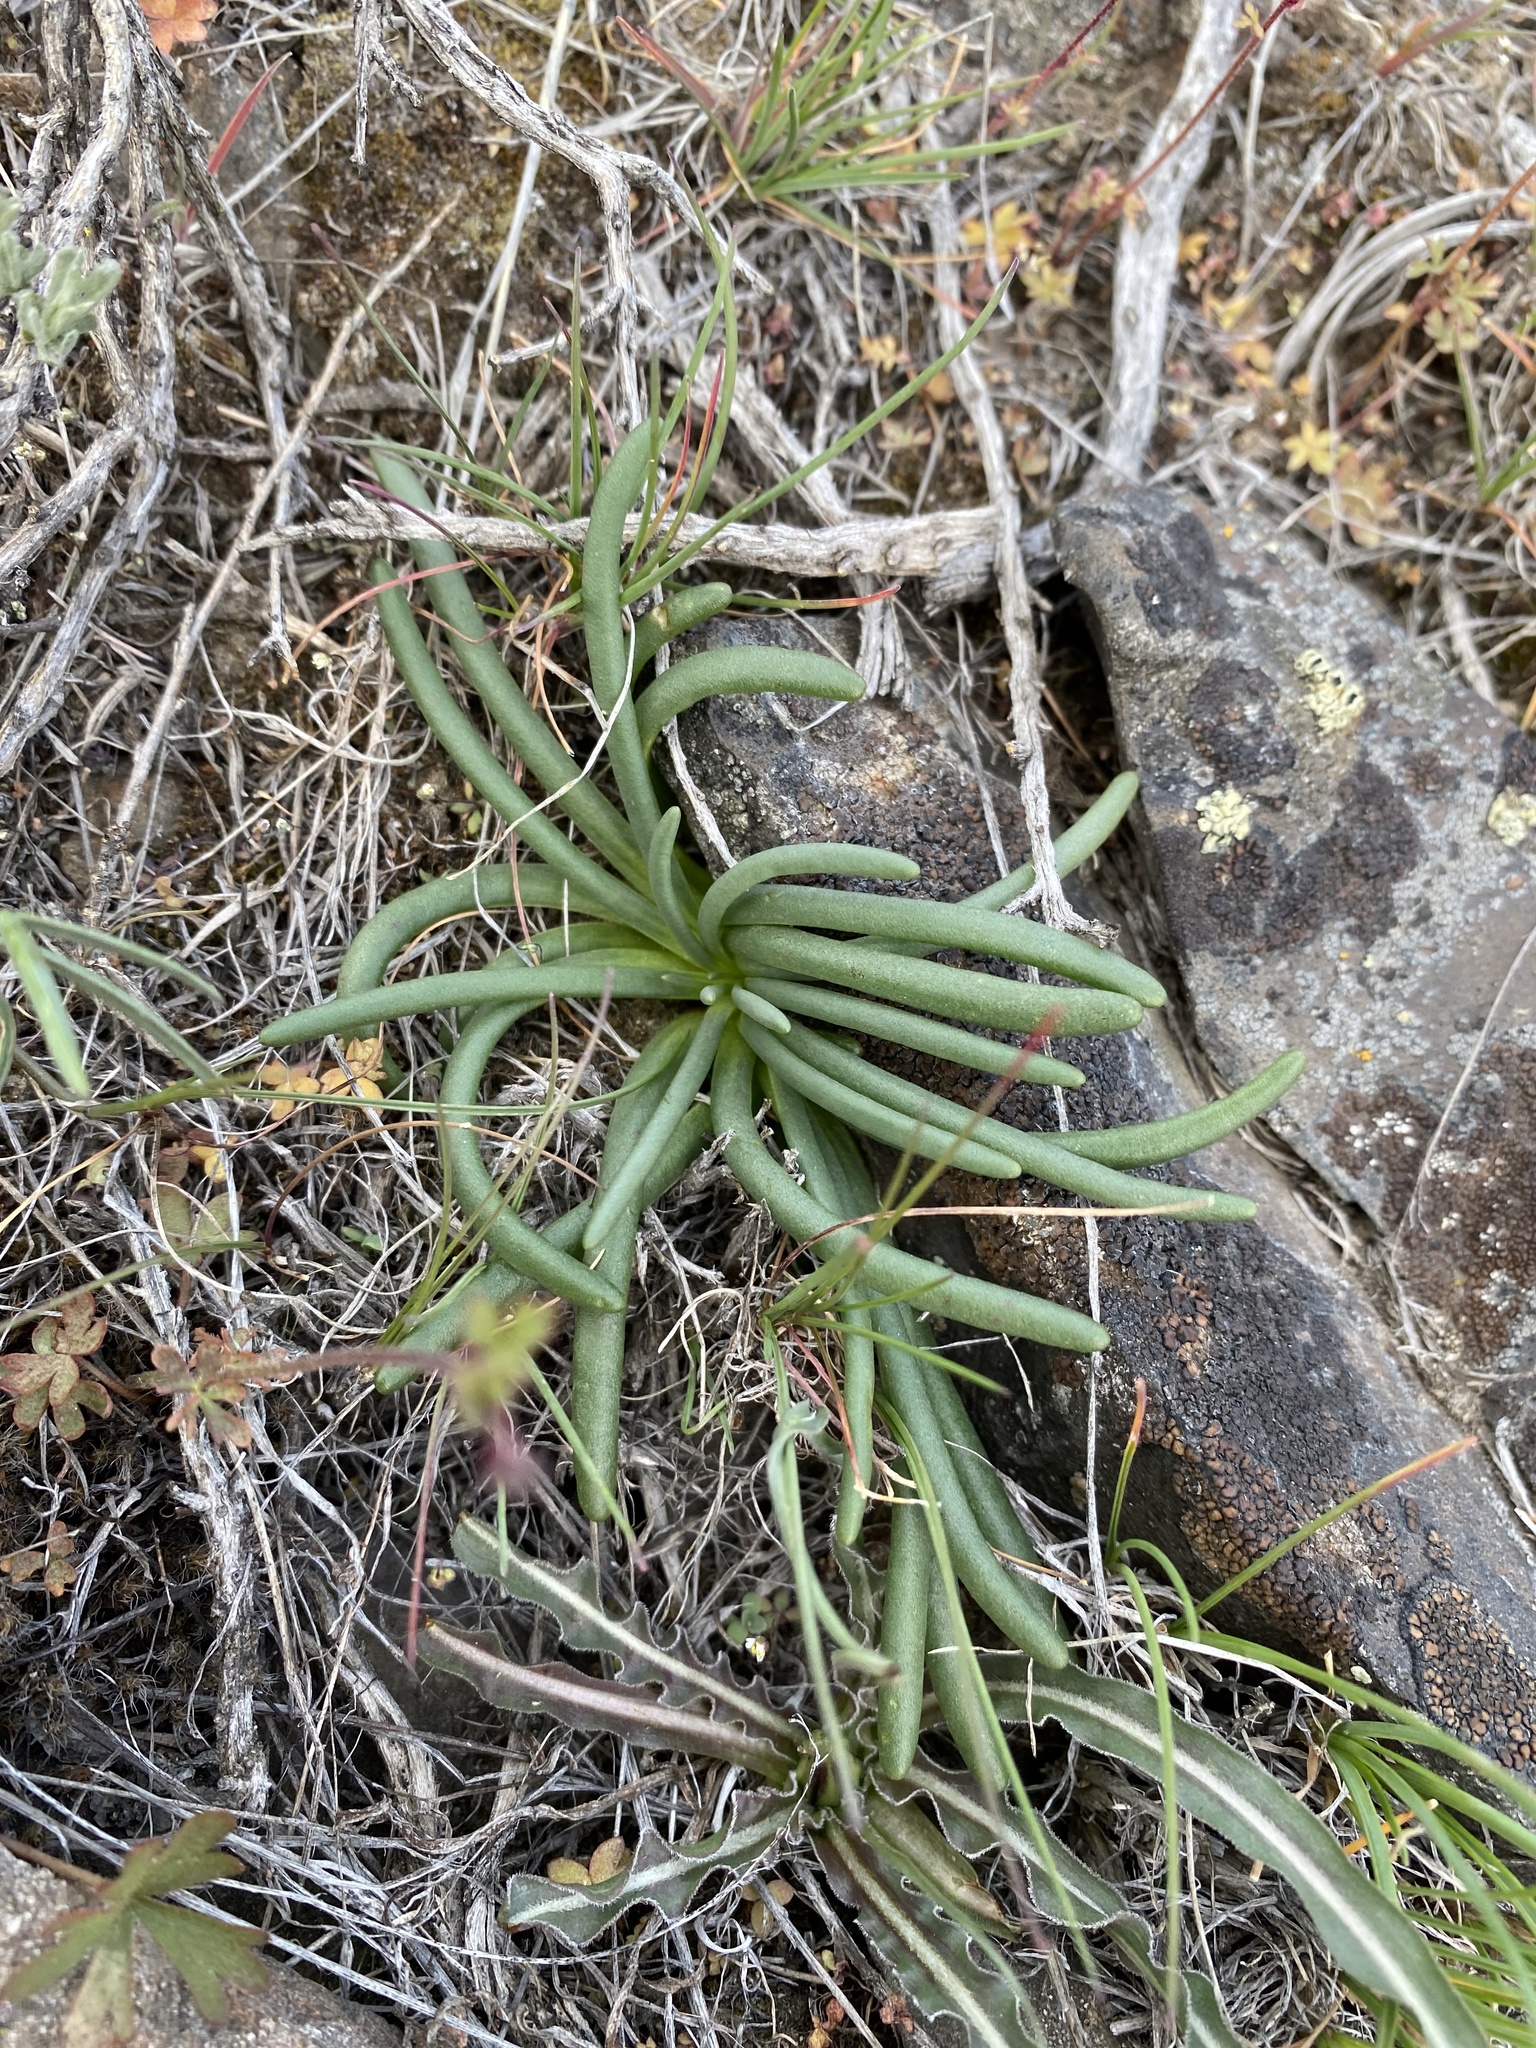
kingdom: Plantae
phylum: Tracheophyta
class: Magnoliopsida
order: Caryophyllales
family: Montiaceae
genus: Lewisia
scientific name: Lewisia rediviva
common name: Bitter-root
